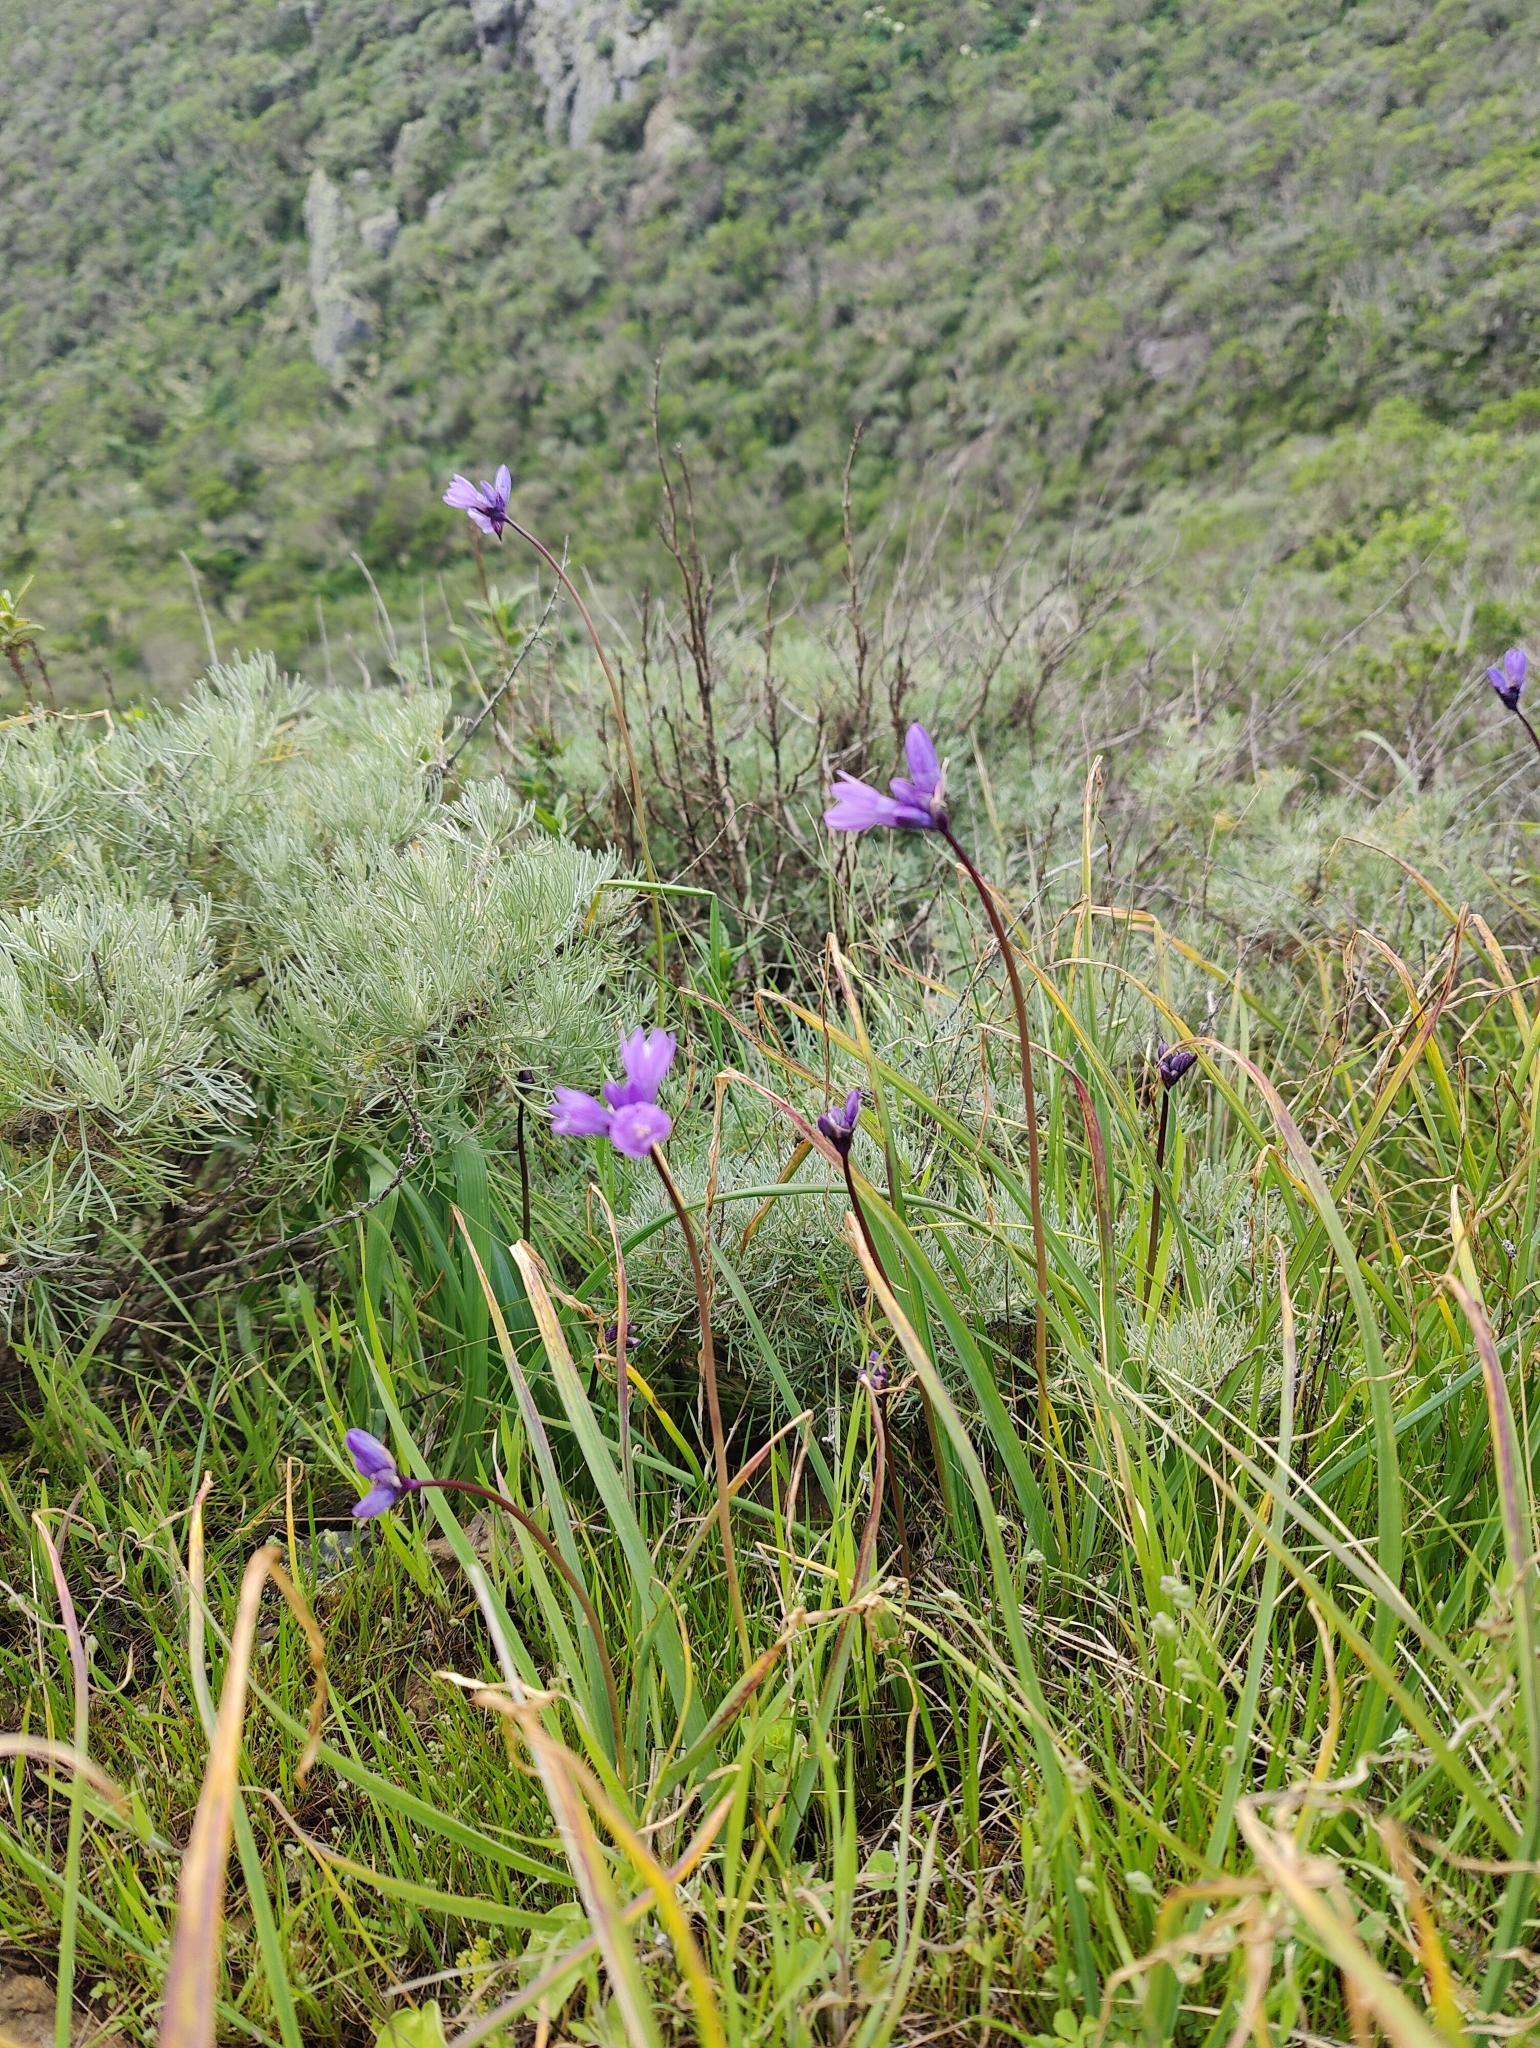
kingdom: Plantae
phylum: Tracheophyta
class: Liliopsida
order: Asparagales
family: Asparagaceae
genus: Dipterostemon
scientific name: Dipterostemon capitatus
